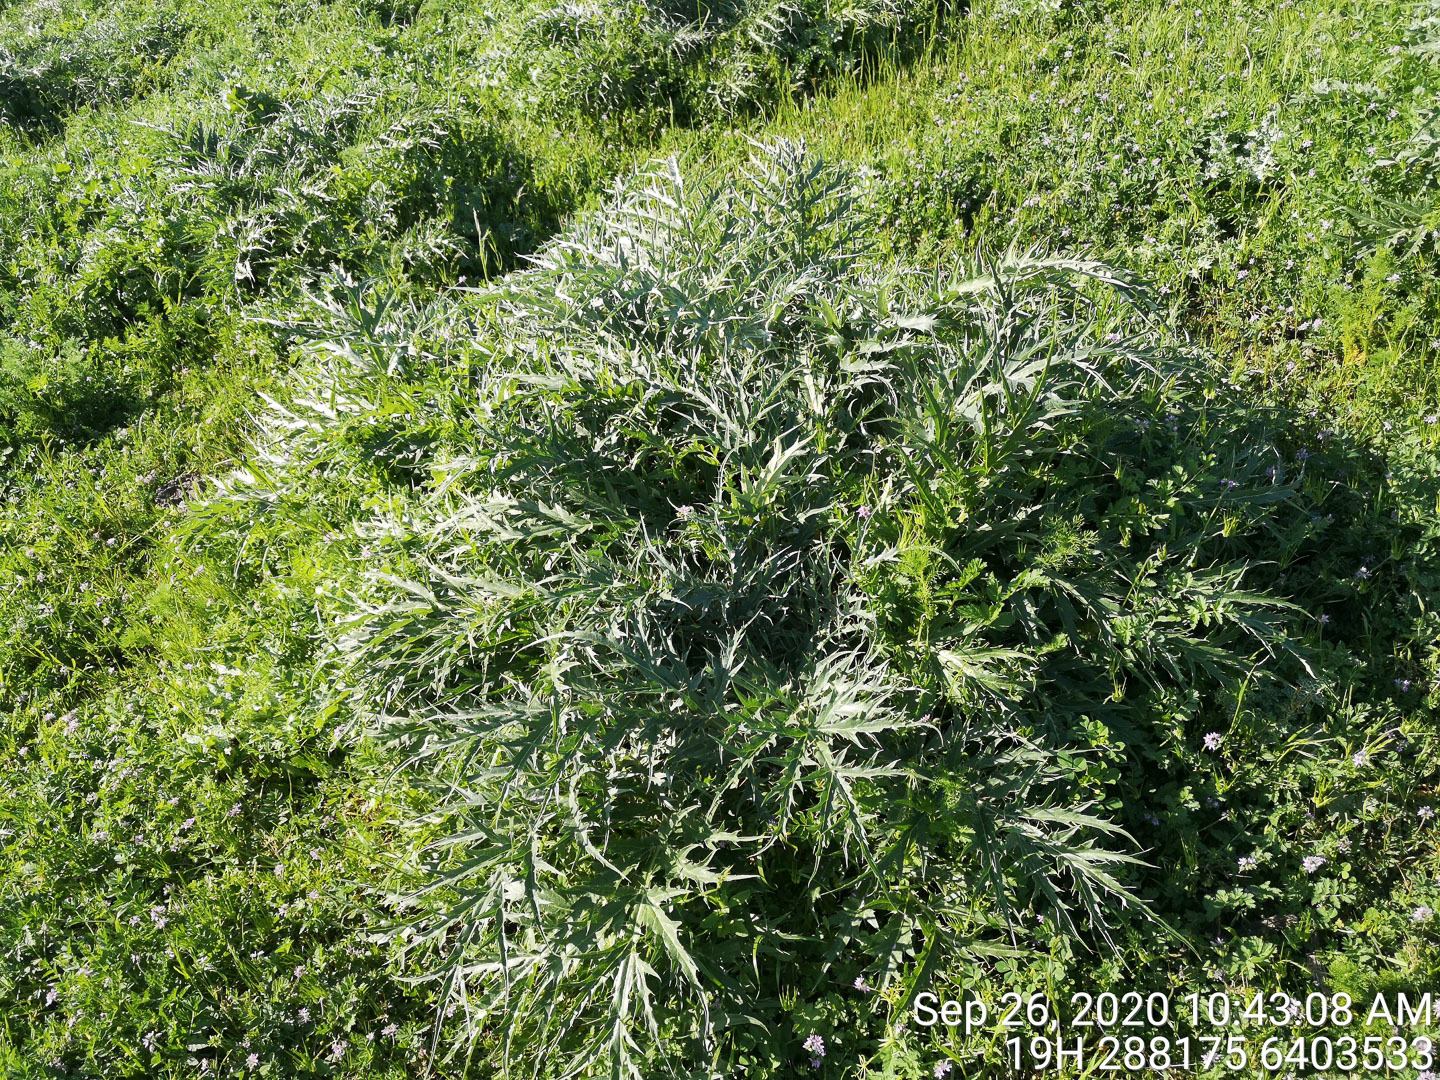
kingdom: Plantae
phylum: Tracheophyta
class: Magnoliopsida
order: Asterales
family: Asteraceae
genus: Cynara
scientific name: Cynara cardunculus
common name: Globe artichoke
